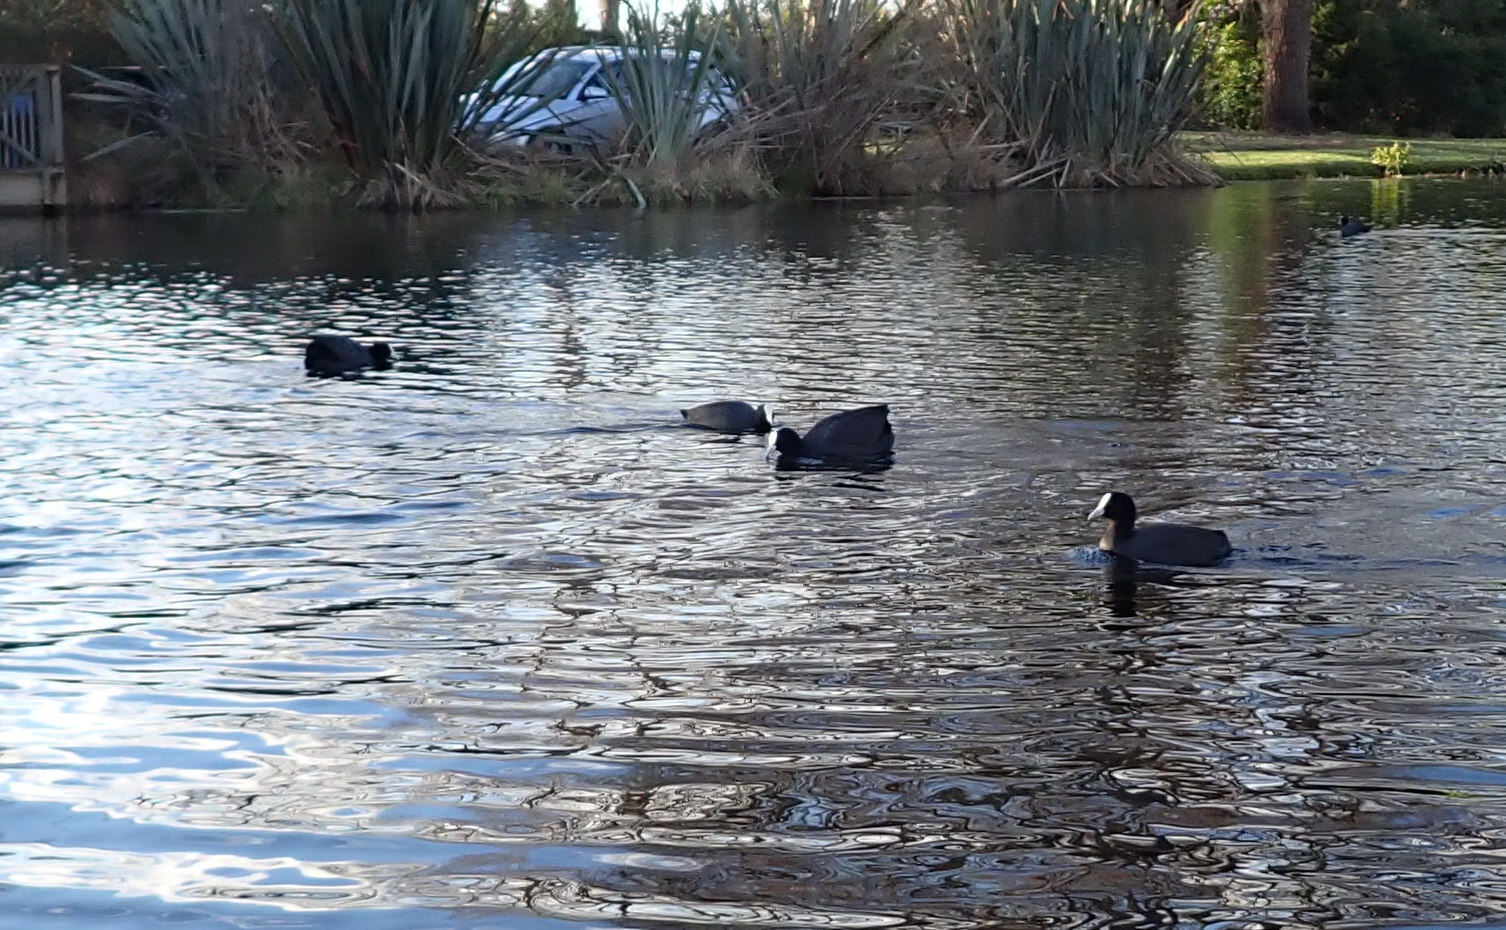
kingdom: Animalia
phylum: Chordata
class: Aves
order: Gruiformes
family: Rallidae
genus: Fulica
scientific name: Fulica atra
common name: Eurasian coot
